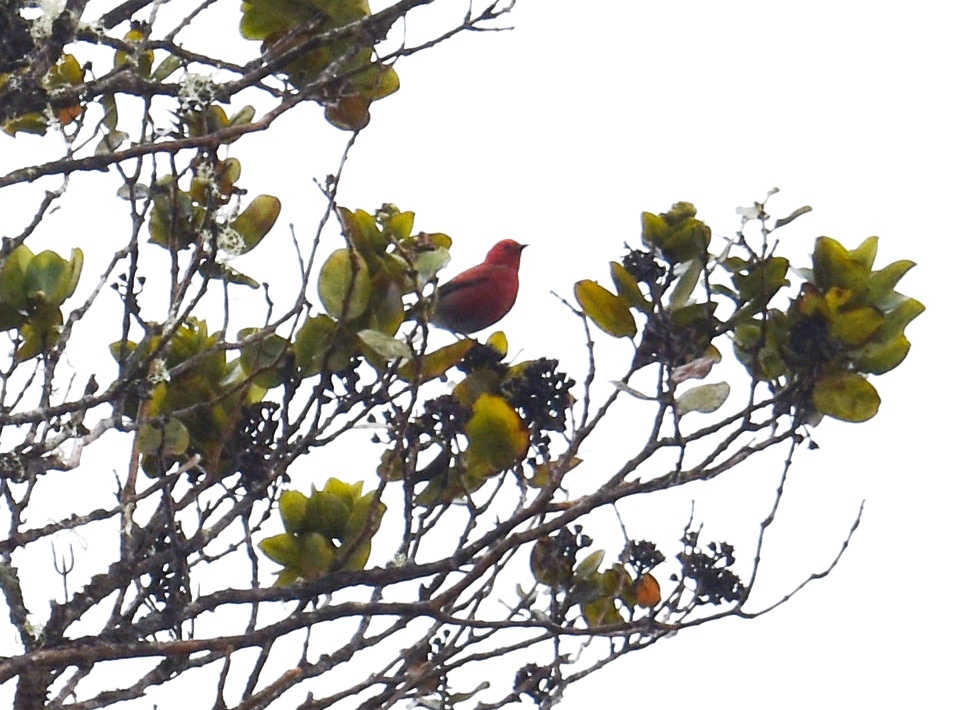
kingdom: Animalia
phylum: Chordata
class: Aves
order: Passeriformes
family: Fringillidae
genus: Himatione
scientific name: Himatione sanguinea
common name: Apapane
